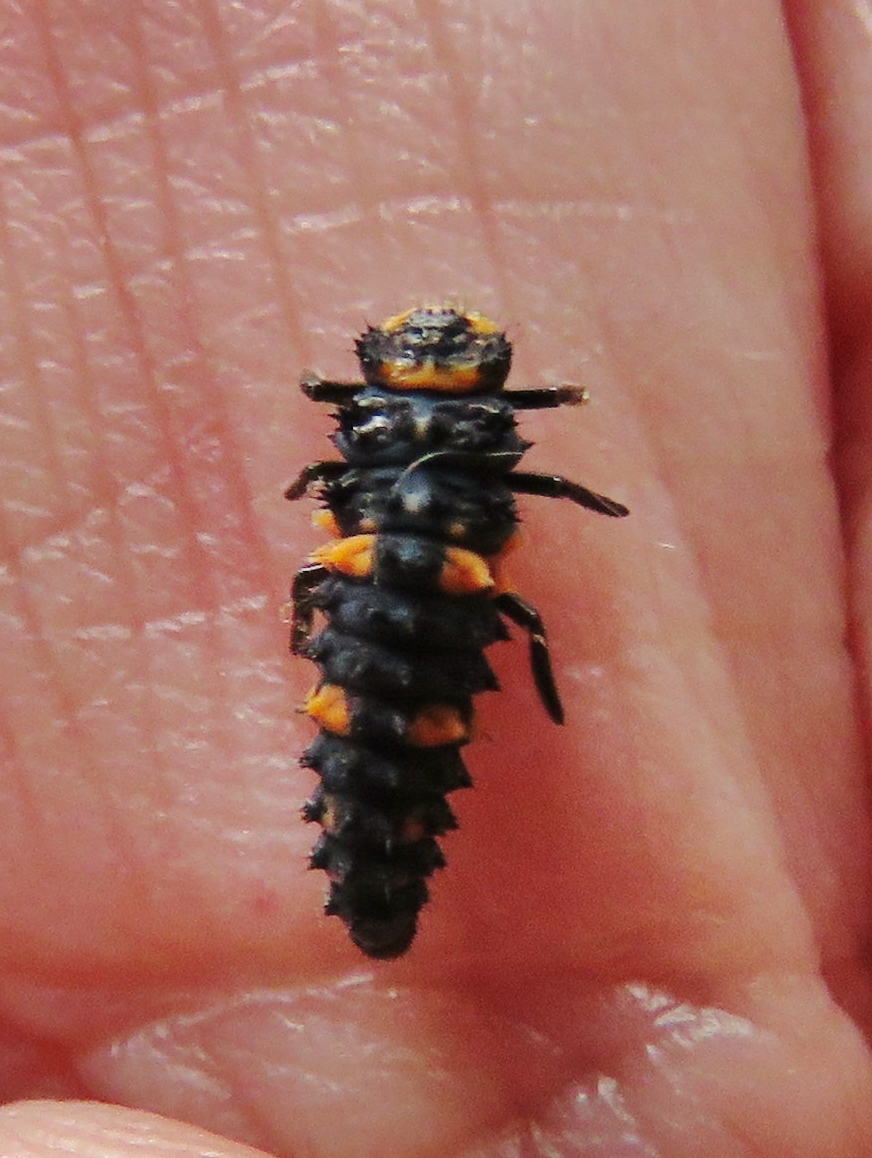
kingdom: Animalia
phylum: Arthropoda
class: Insecta
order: Coleoptera
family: Coccinellidae
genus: Coccinella
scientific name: Coccinella septempunctata
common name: Sevenspotted lady beetle
